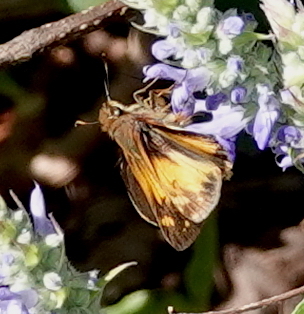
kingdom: Animalia
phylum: Arthropoda
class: Insecta
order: Lepidoptera
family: Hesperiidae
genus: Lon
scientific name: Lon
